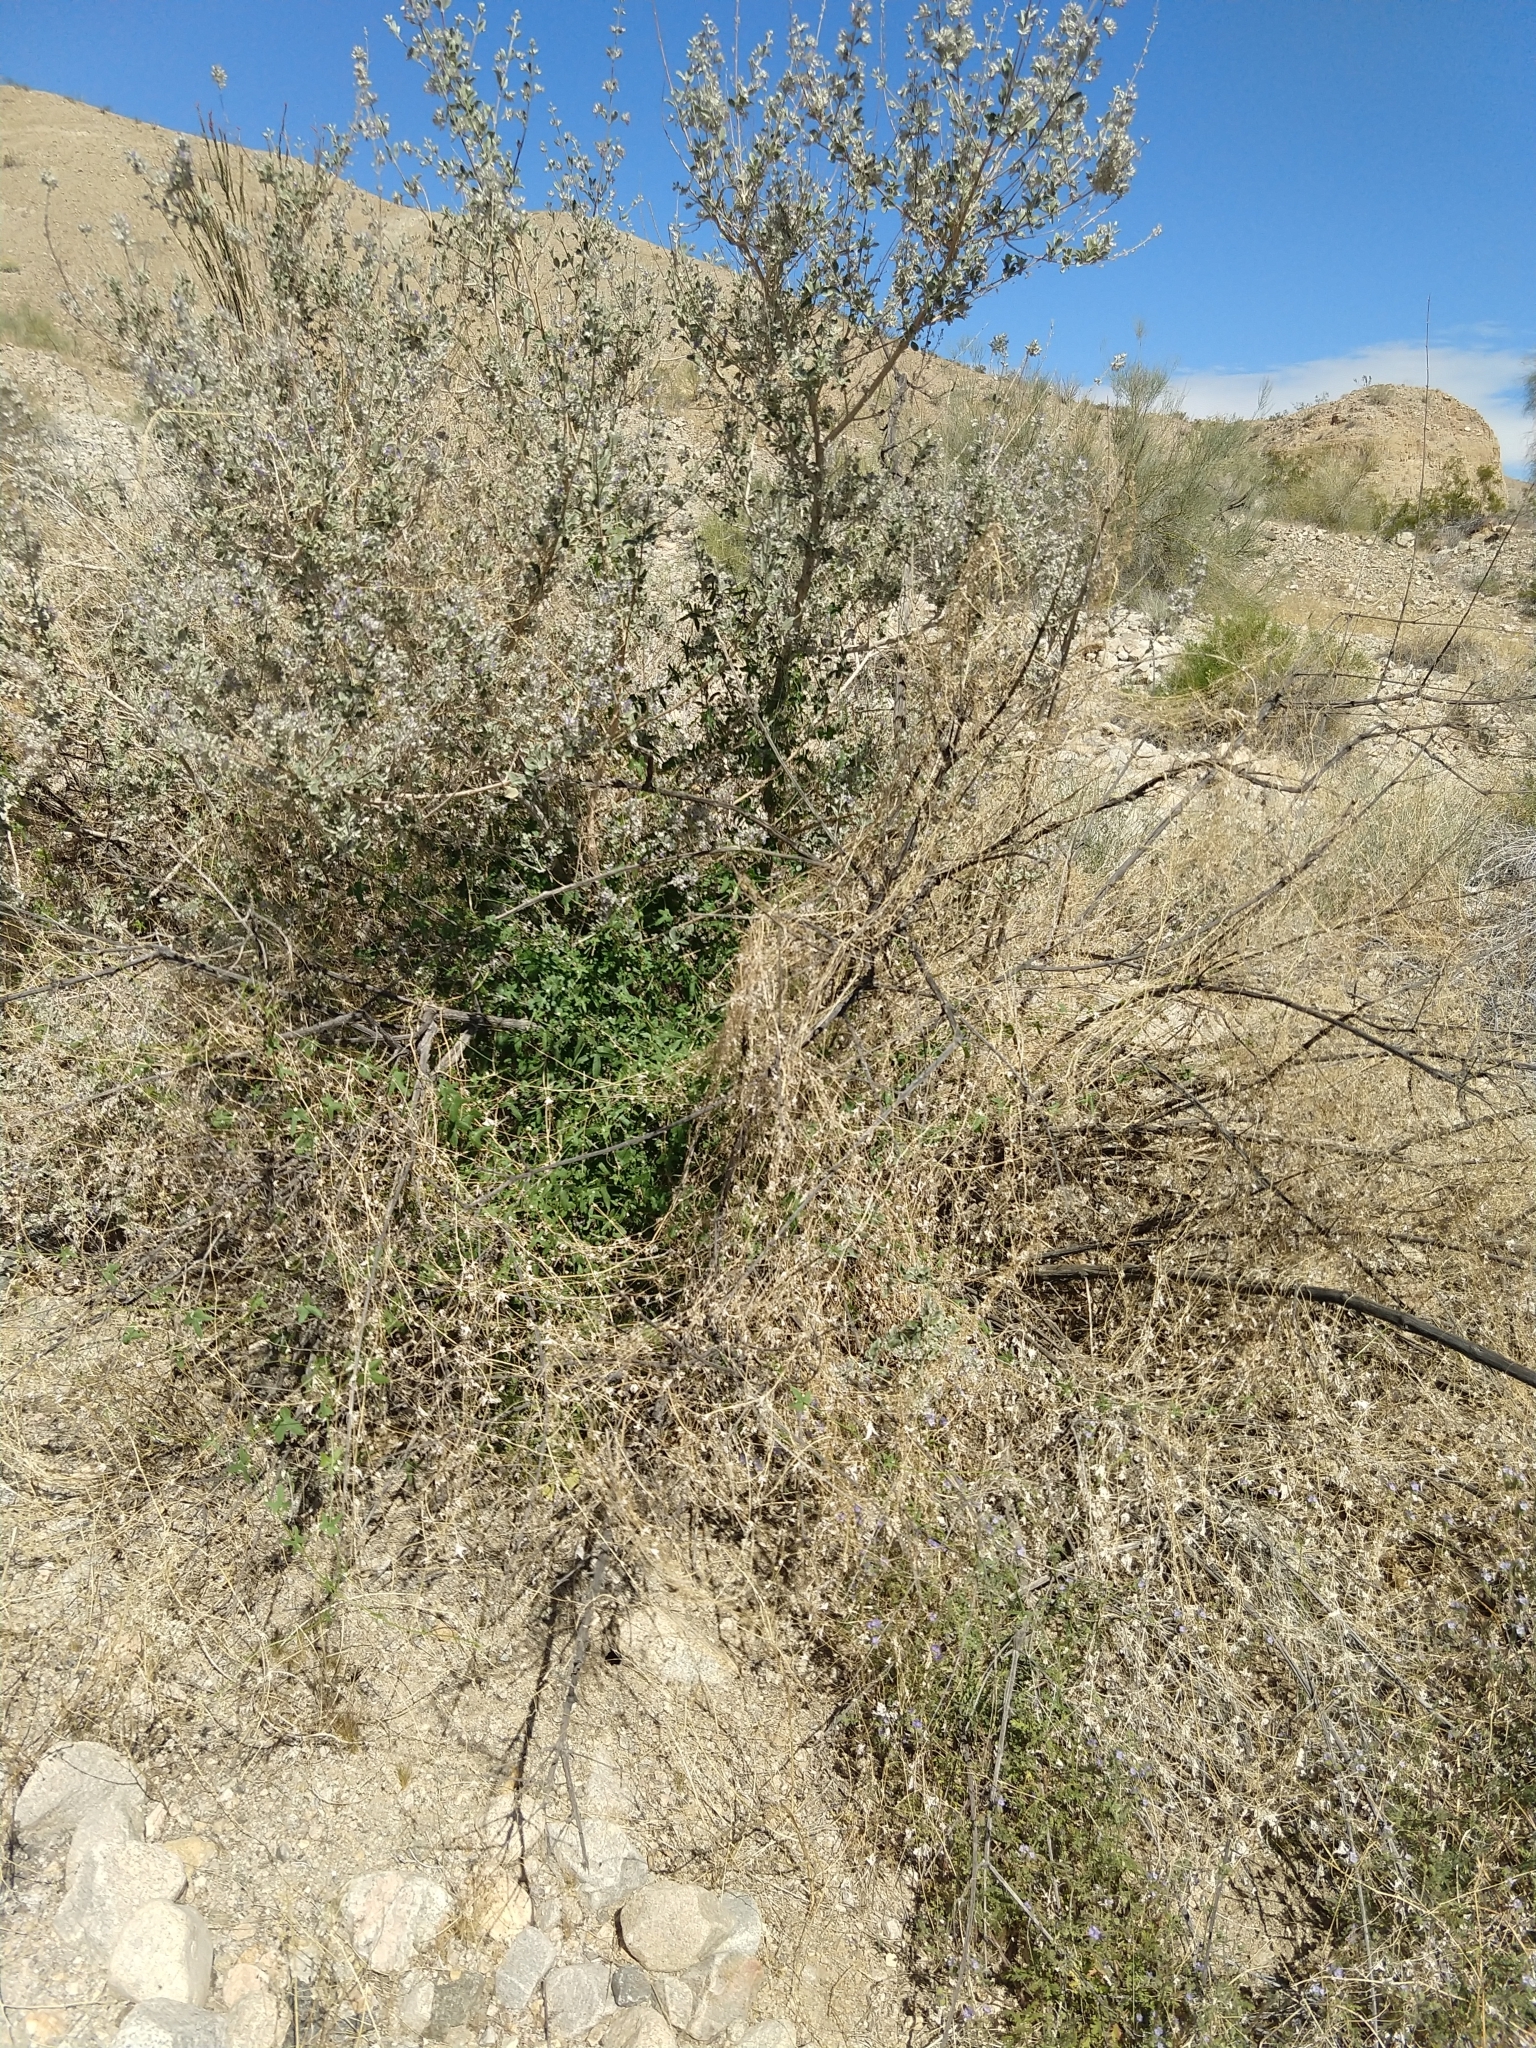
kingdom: Plantae
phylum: Tracheophyta
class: Magnoliopsida
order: Cucurbitales
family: Cucurbitaceae
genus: Echinopepon
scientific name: Echinopepon bigelovii
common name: Desert starvine
